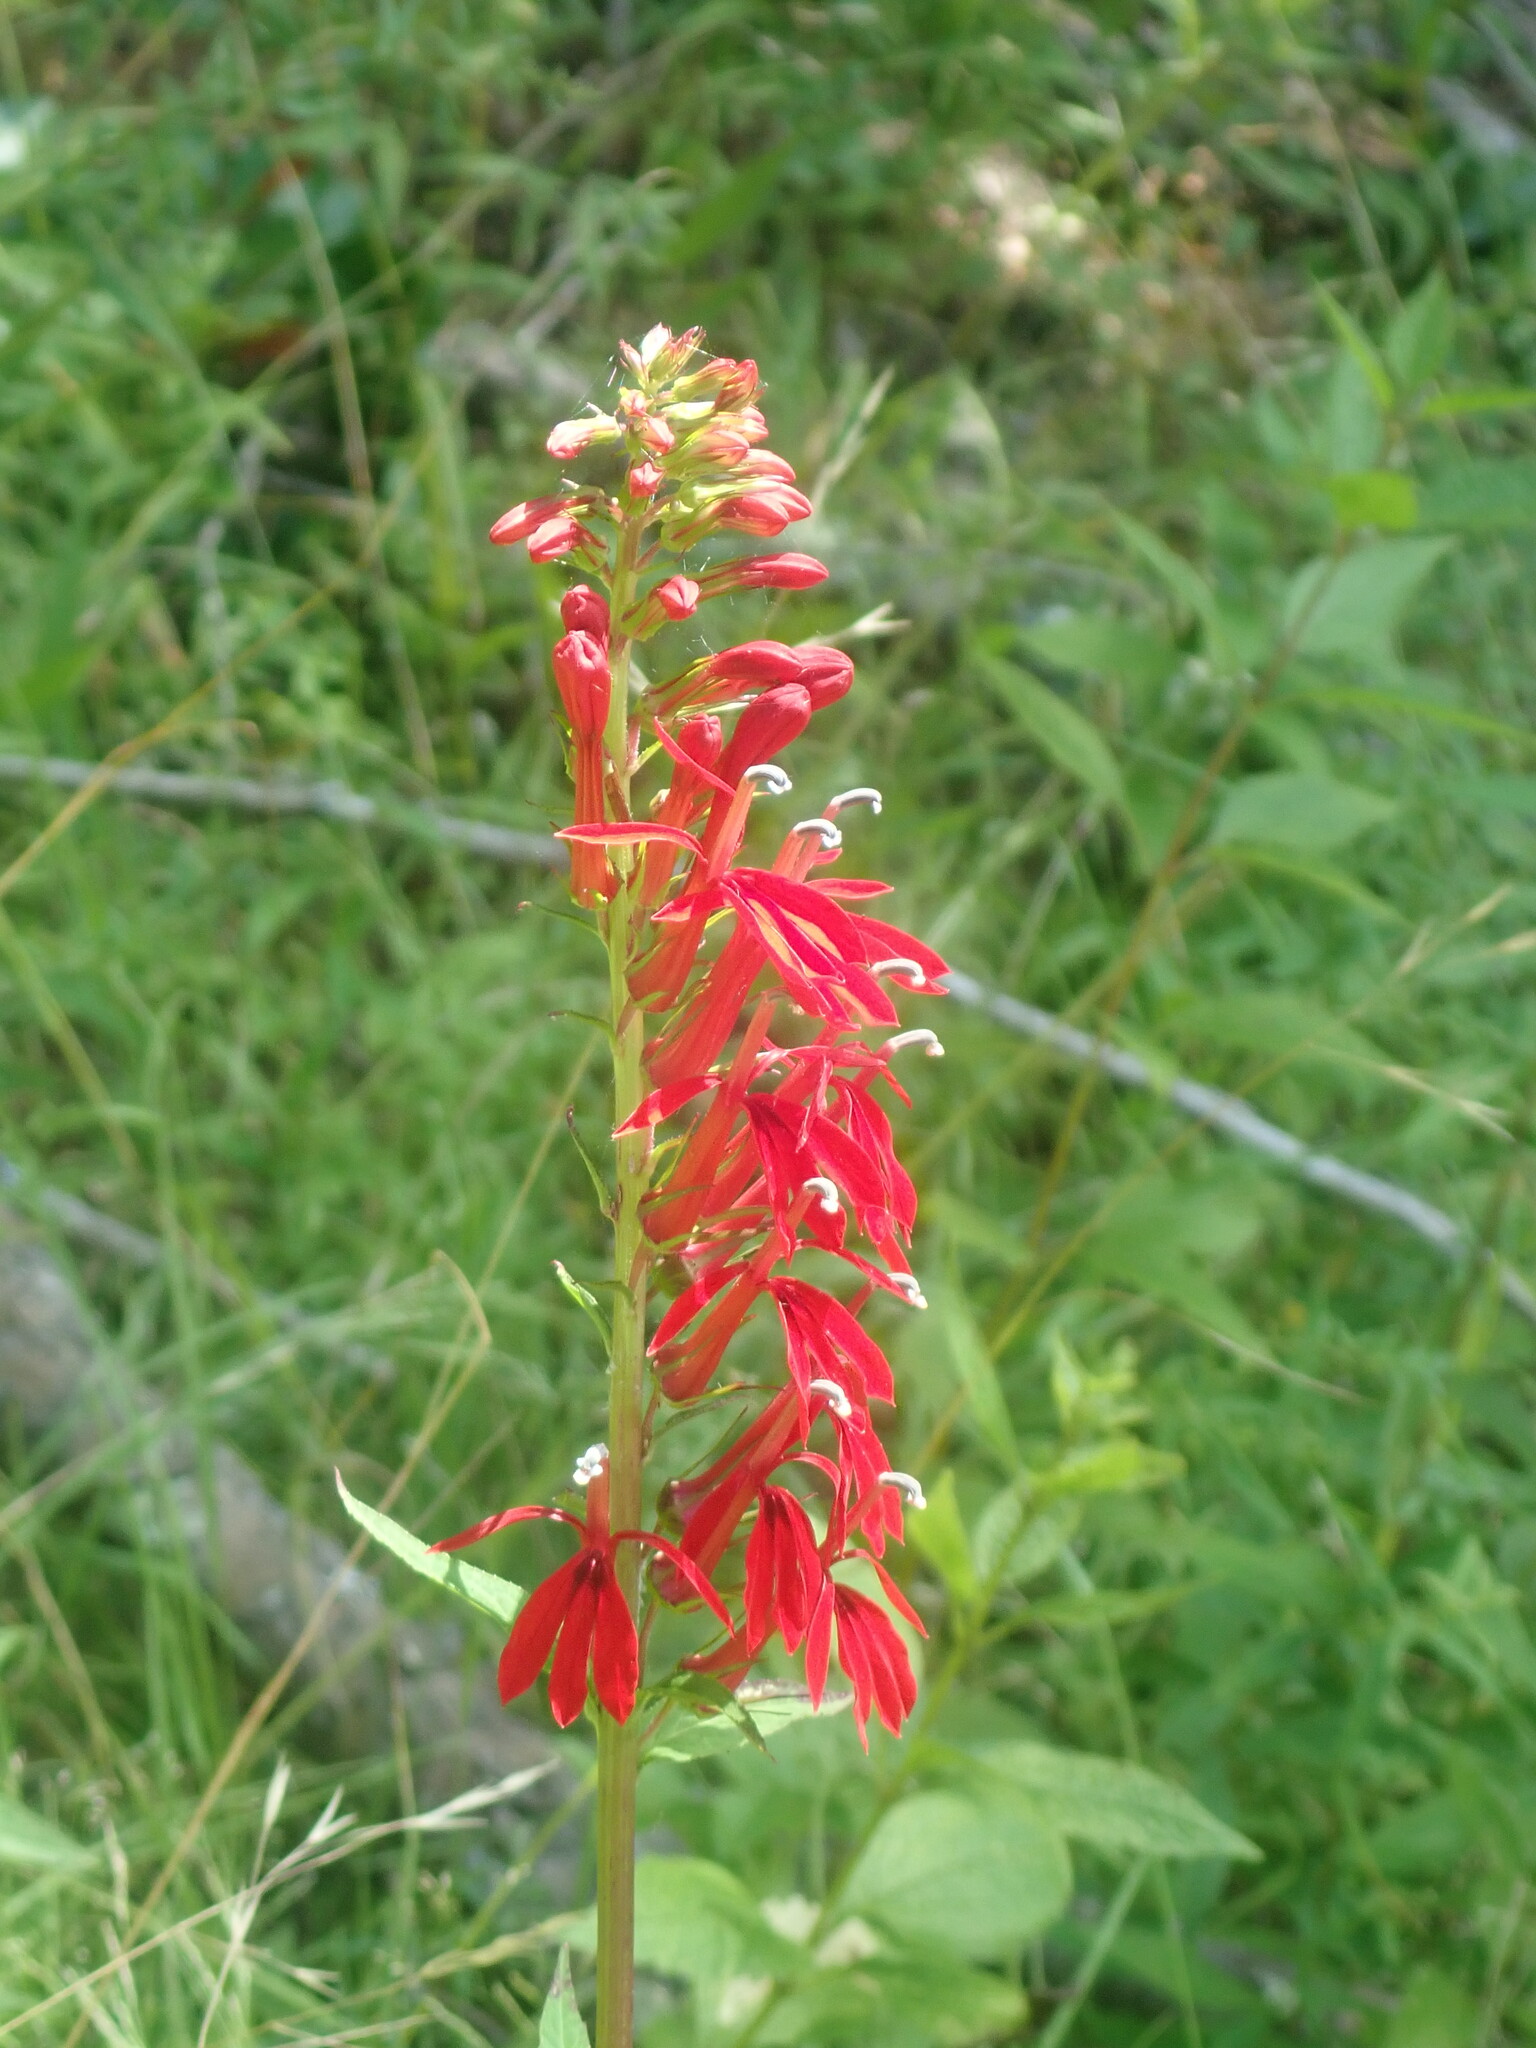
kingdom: Plantae
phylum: Tracheophyta
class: Magnoliopsida
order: Asterales
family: Campanulaceae
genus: Lobelia
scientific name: Lobelia cardinalis
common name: Cardinal flower
